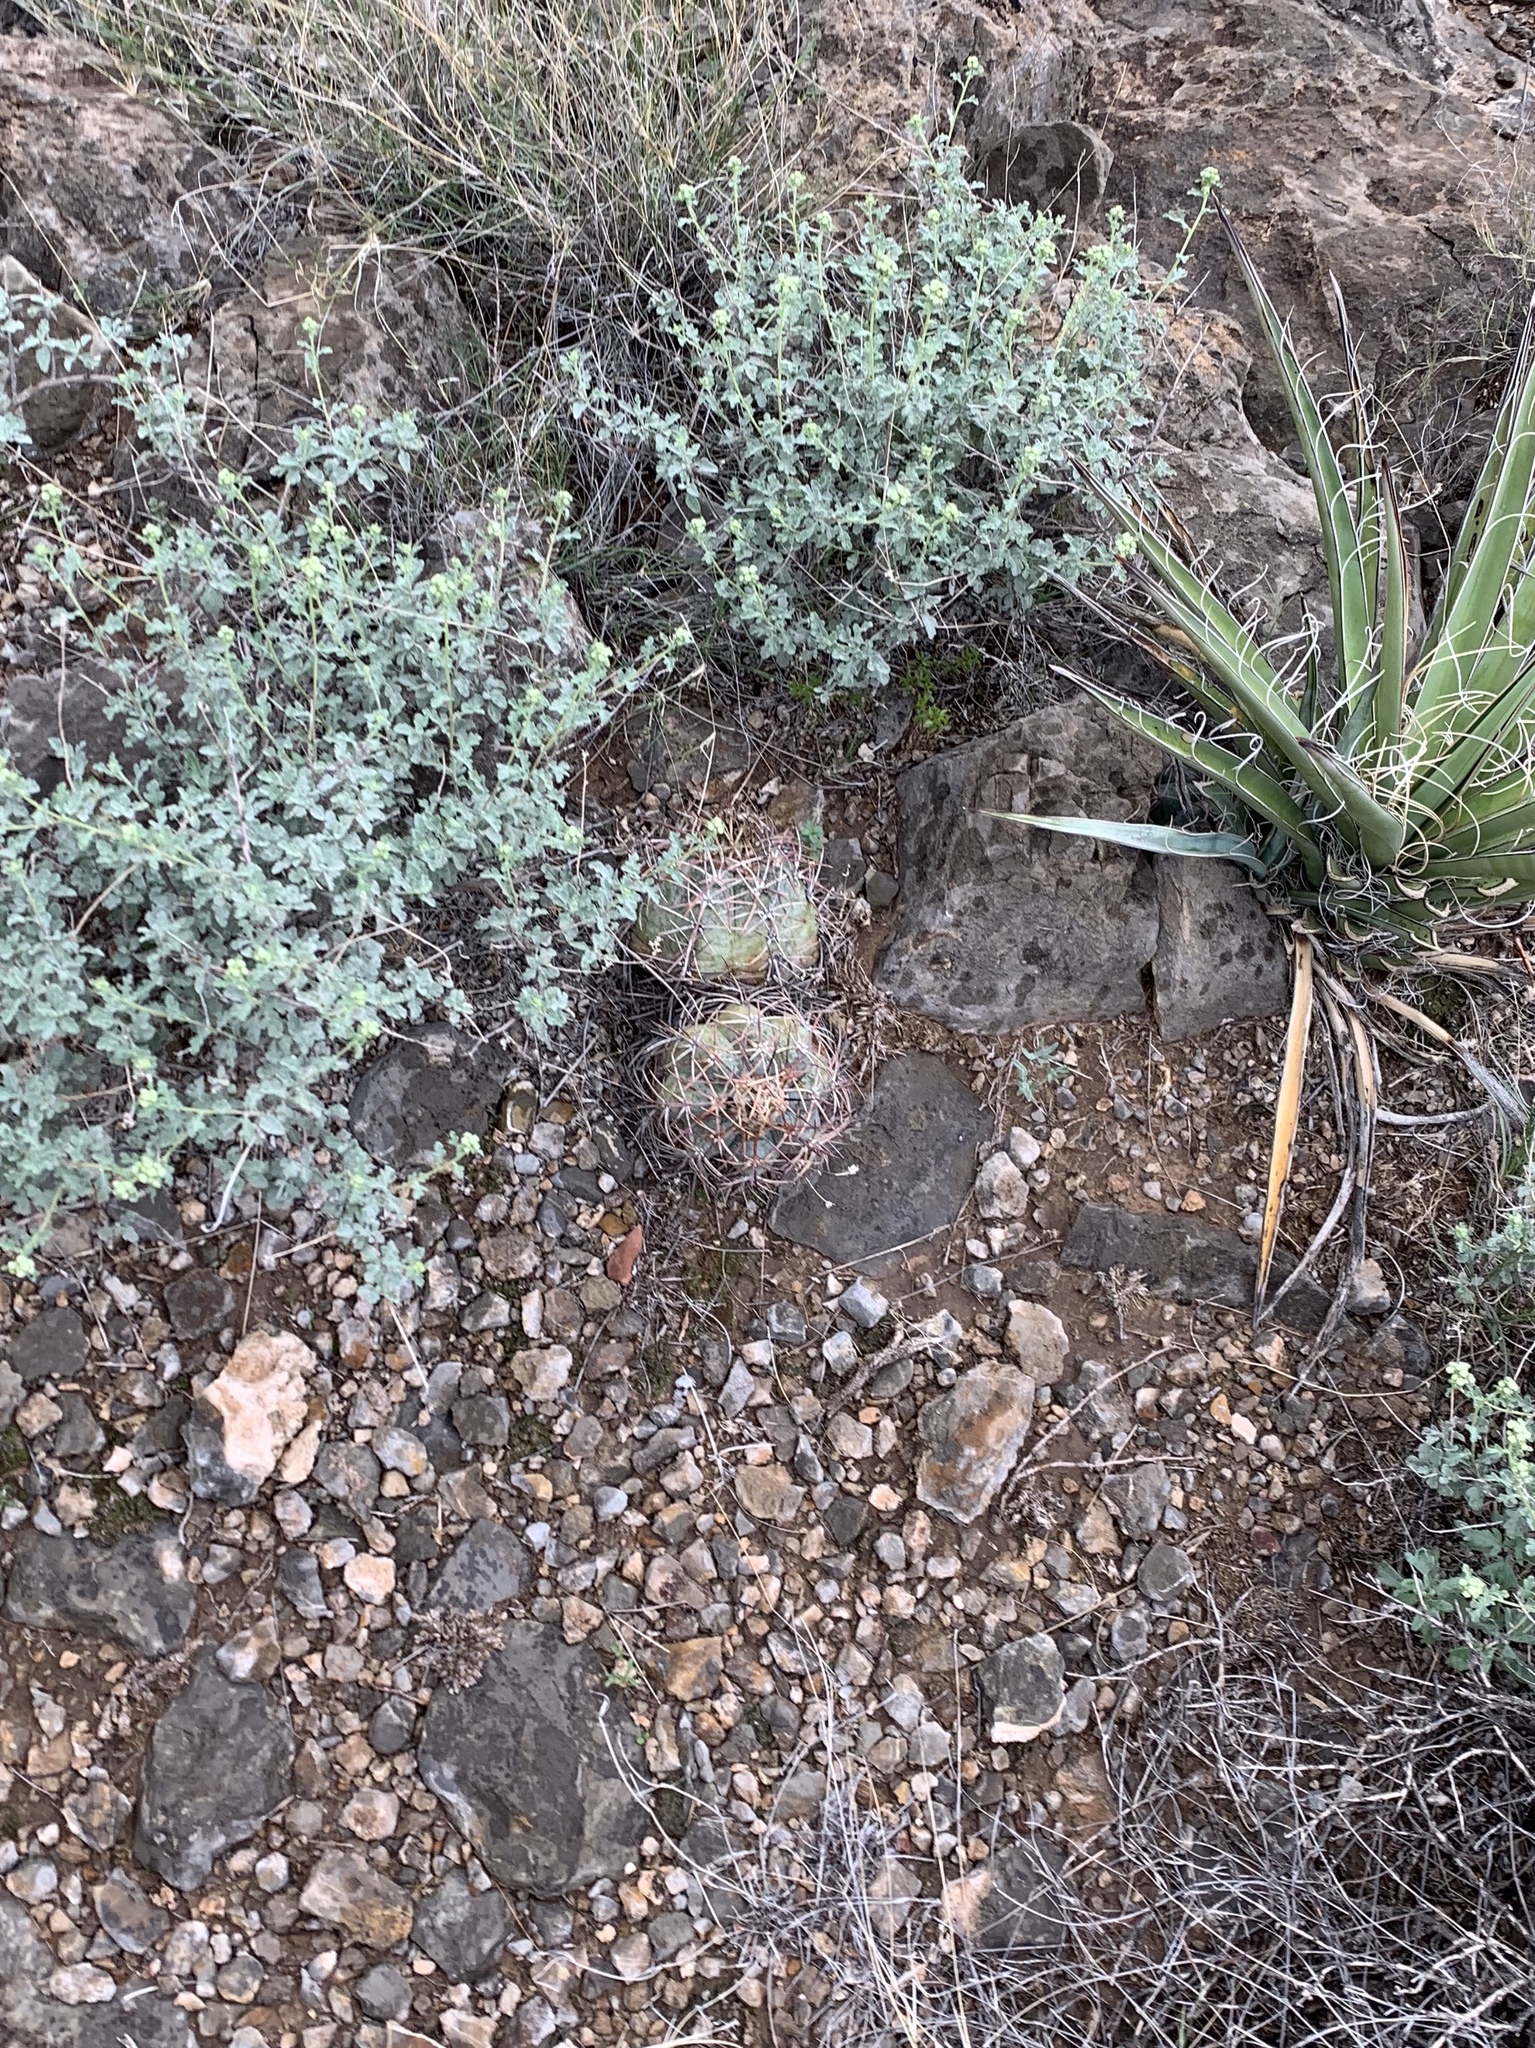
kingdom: Plantae
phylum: Tracheophyta
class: Magnoliopsida
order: Caryophyllales
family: Cactaceae
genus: Echinocactus
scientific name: Echinocactus horizonthalonius
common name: Devilshead
